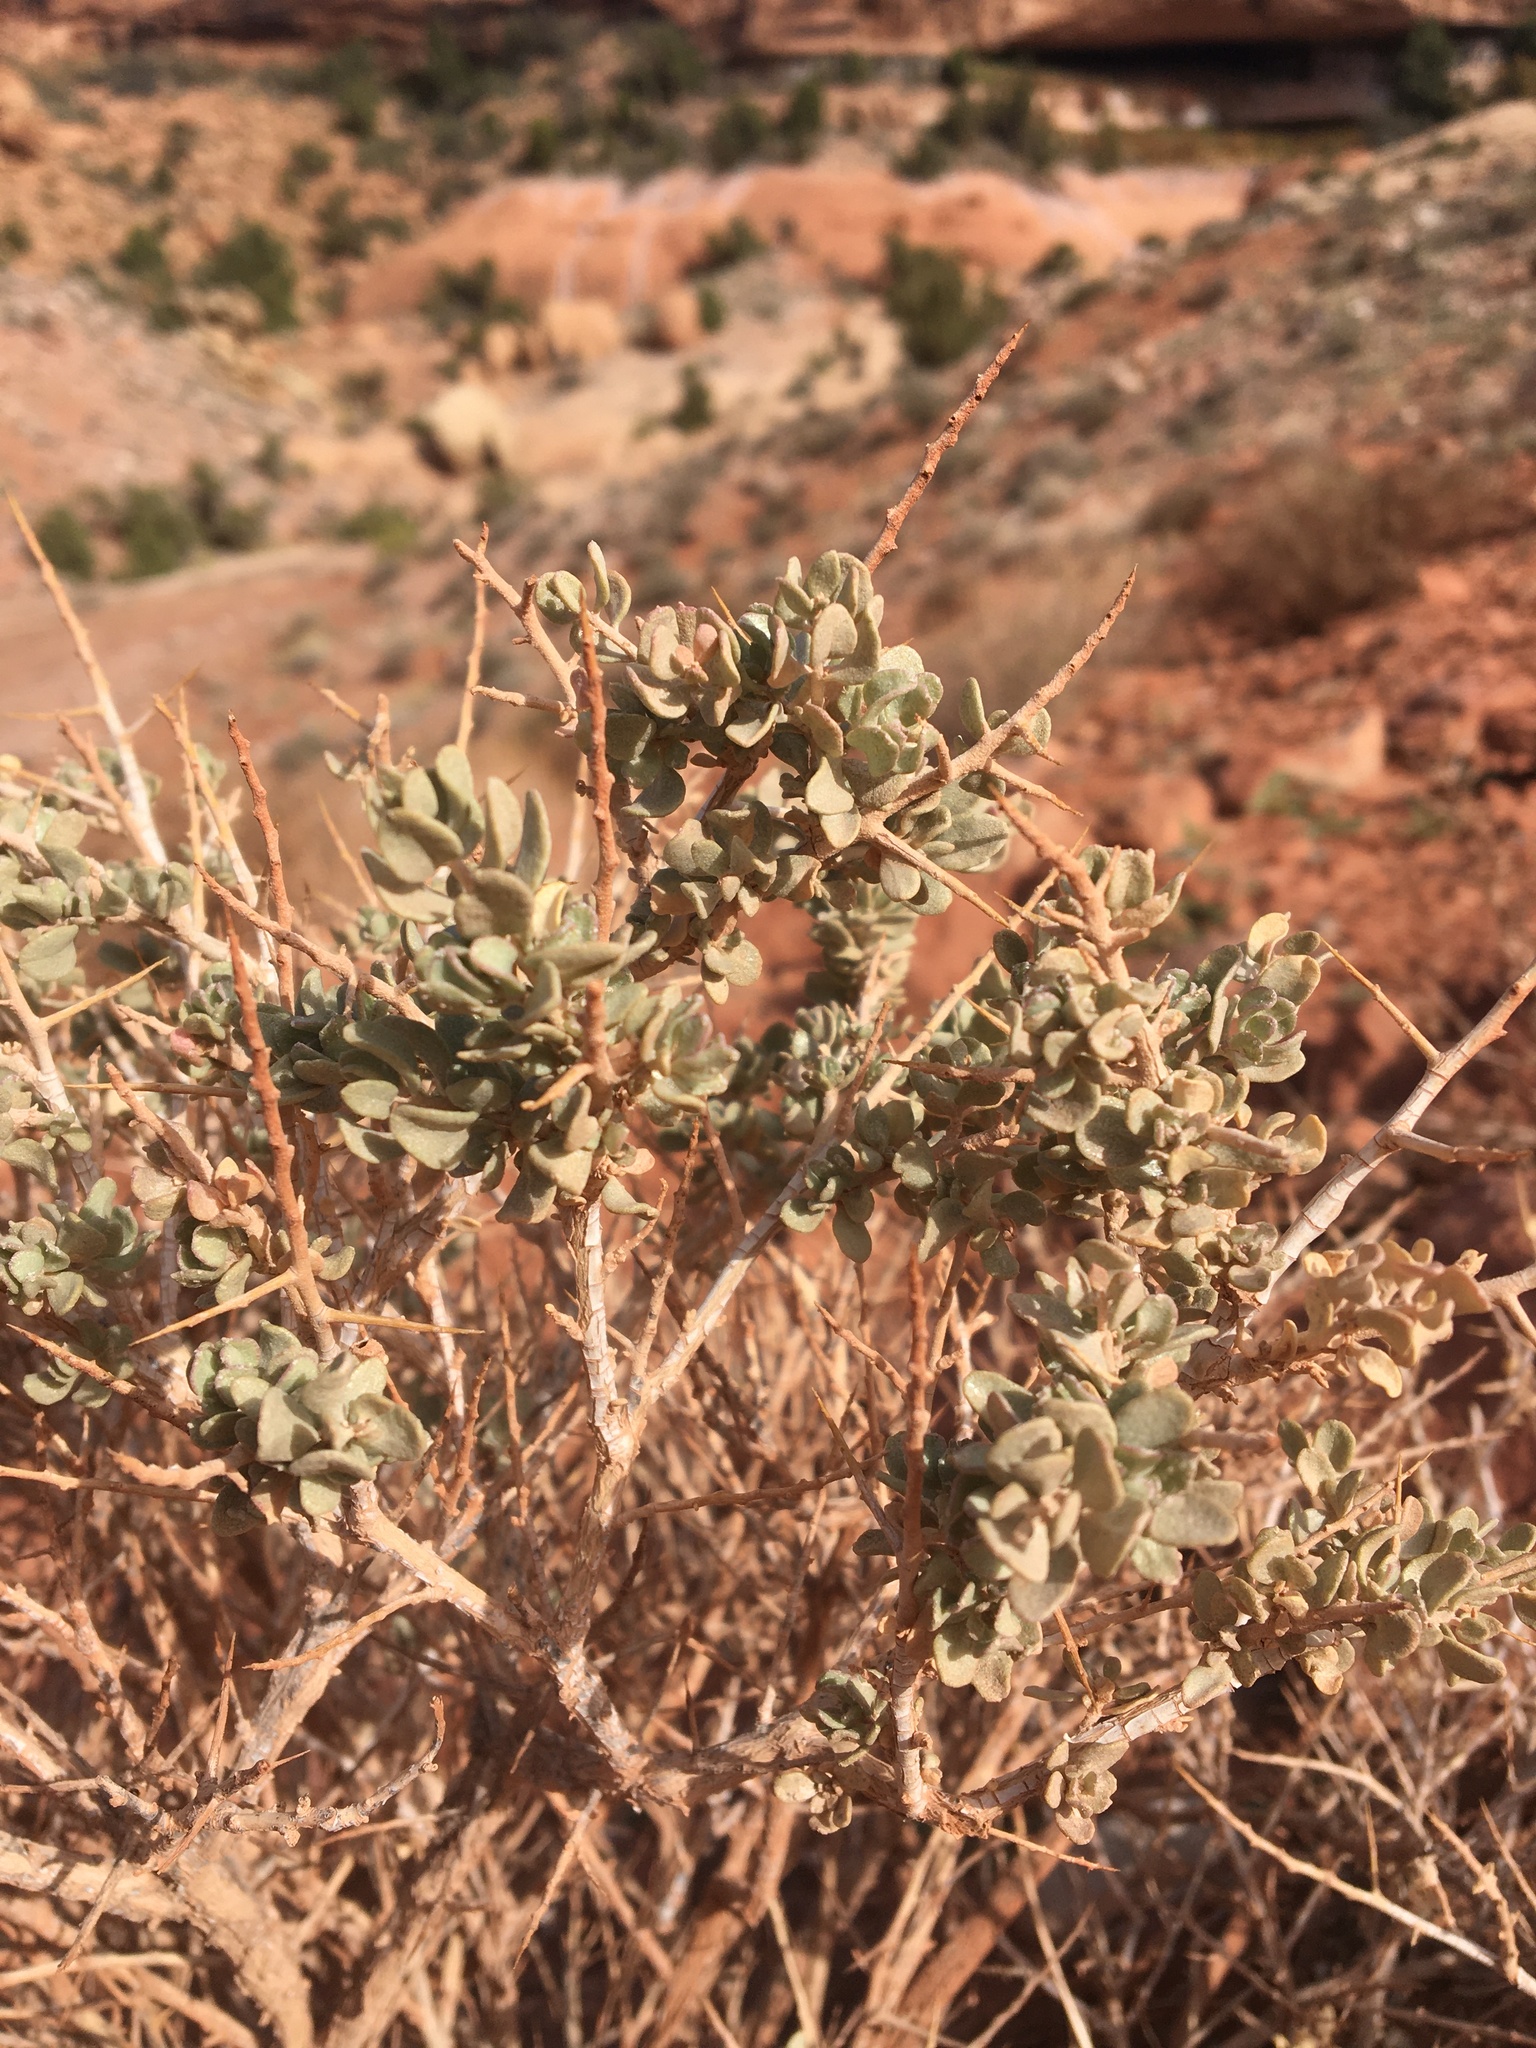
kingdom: Plantae
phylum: Tracheophyta
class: Magnoliopsida
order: Caryophyllales
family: Amaranthaceae
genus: Atriplex
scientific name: Atriplex confertifolia
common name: Shadscale
